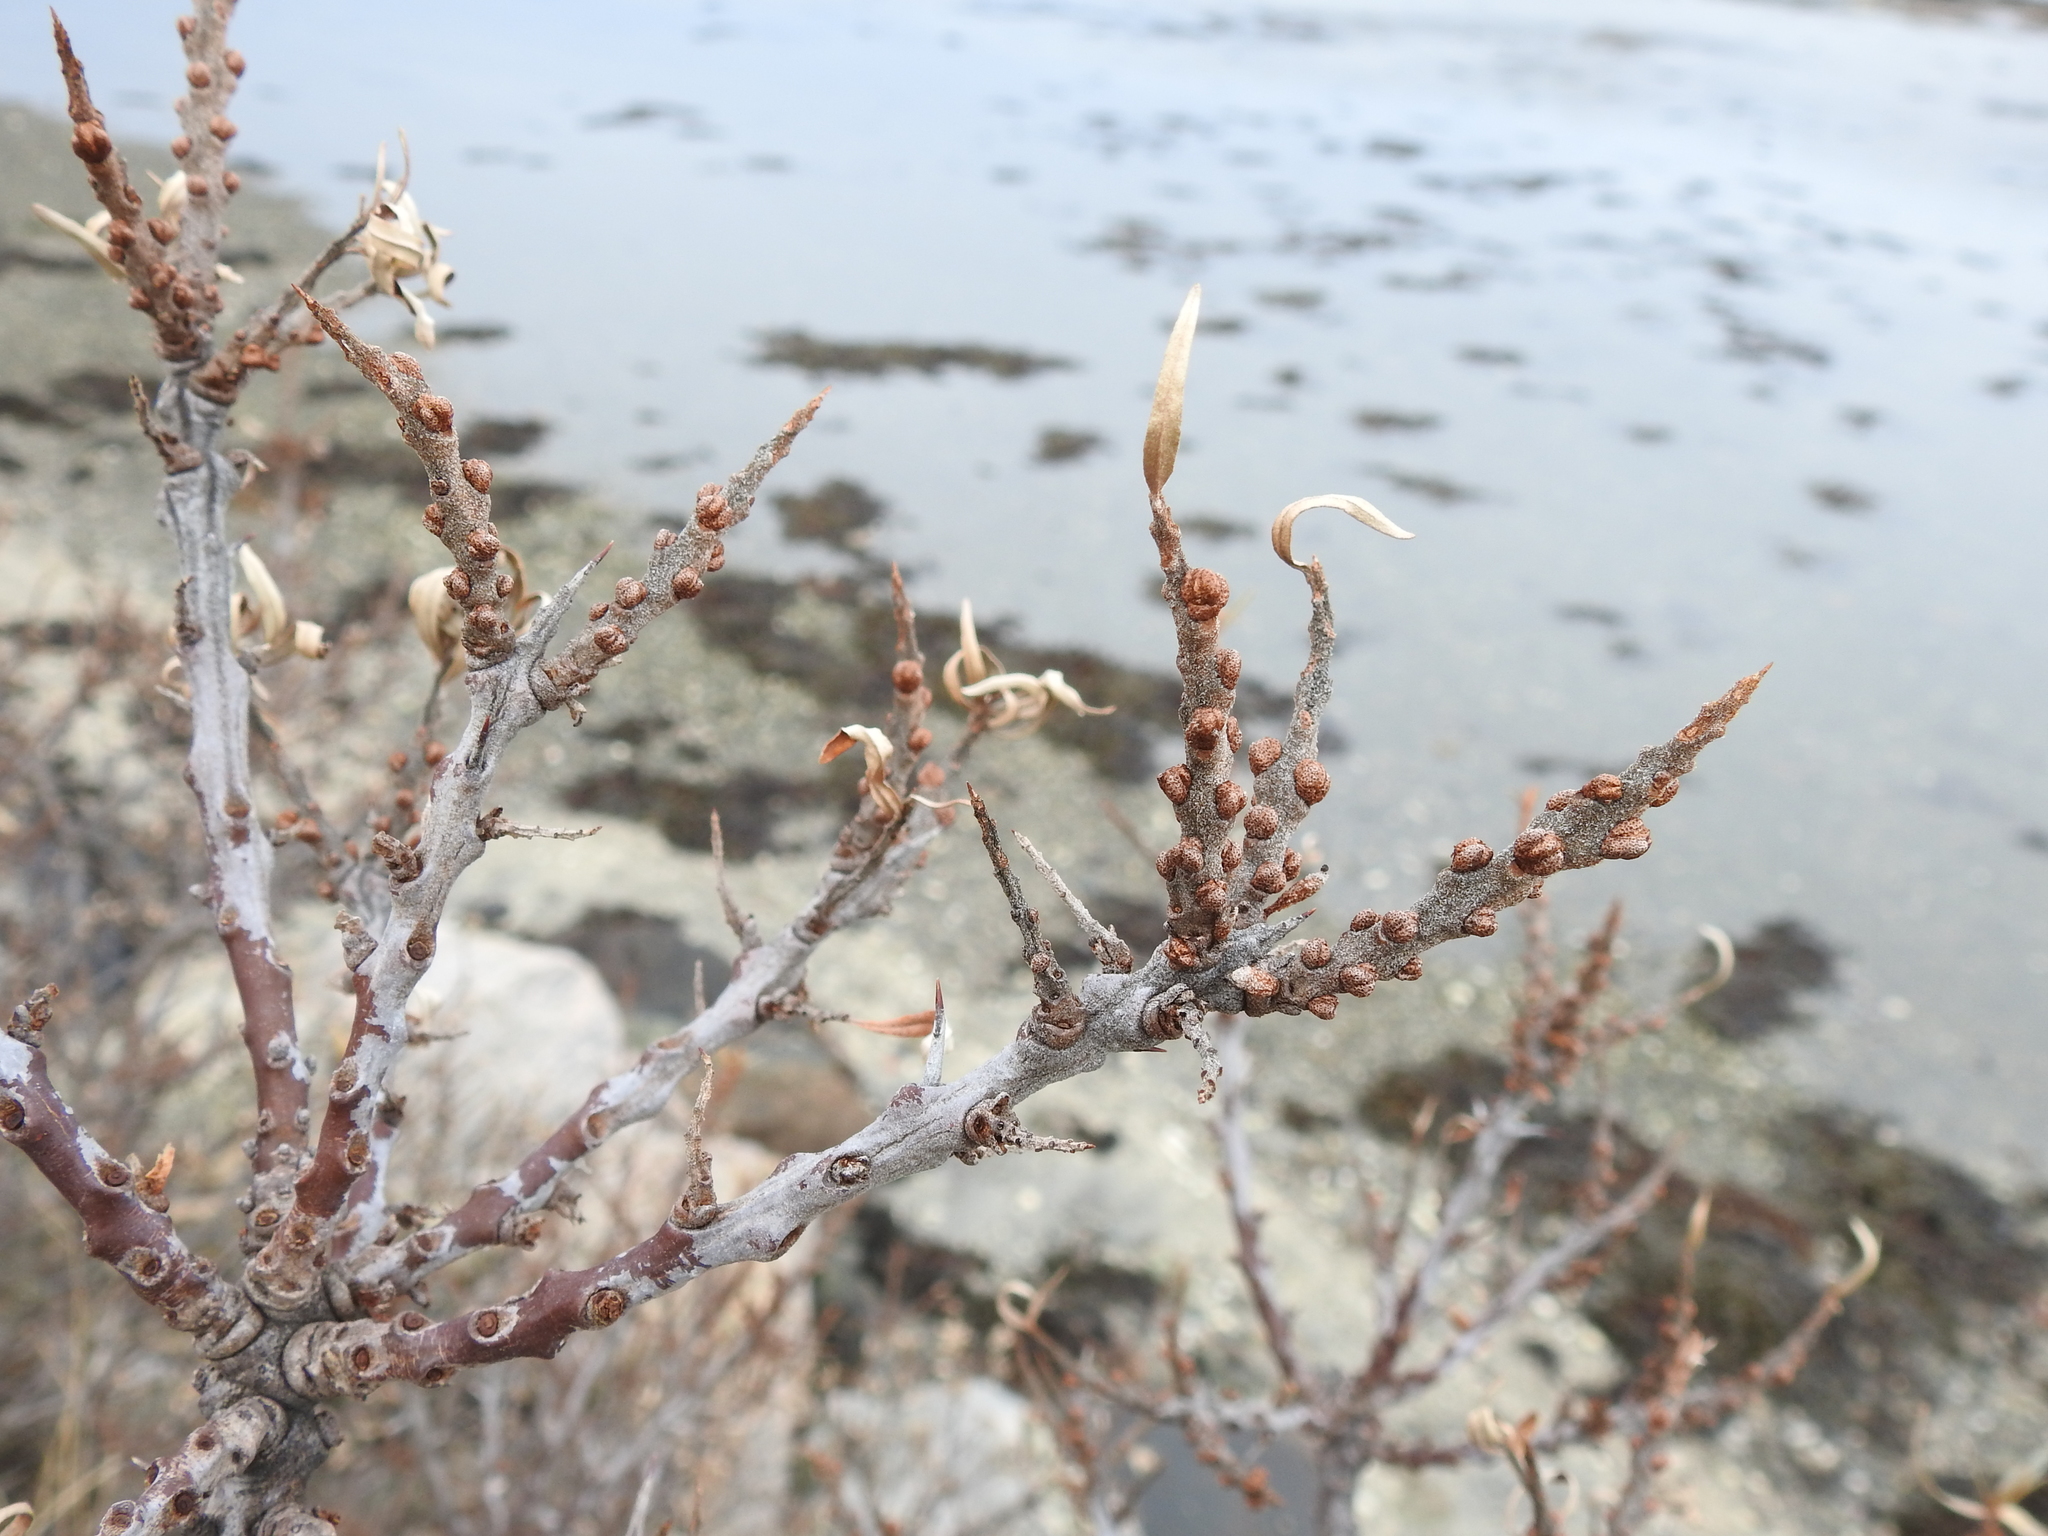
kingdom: Plantae
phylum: Tracheophyta
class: Magnoliopsida
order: Rosales
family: Elaeagnaceae
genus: Hippophae
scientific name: Hippophae rhamnoides
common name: Sea-buckthorn
